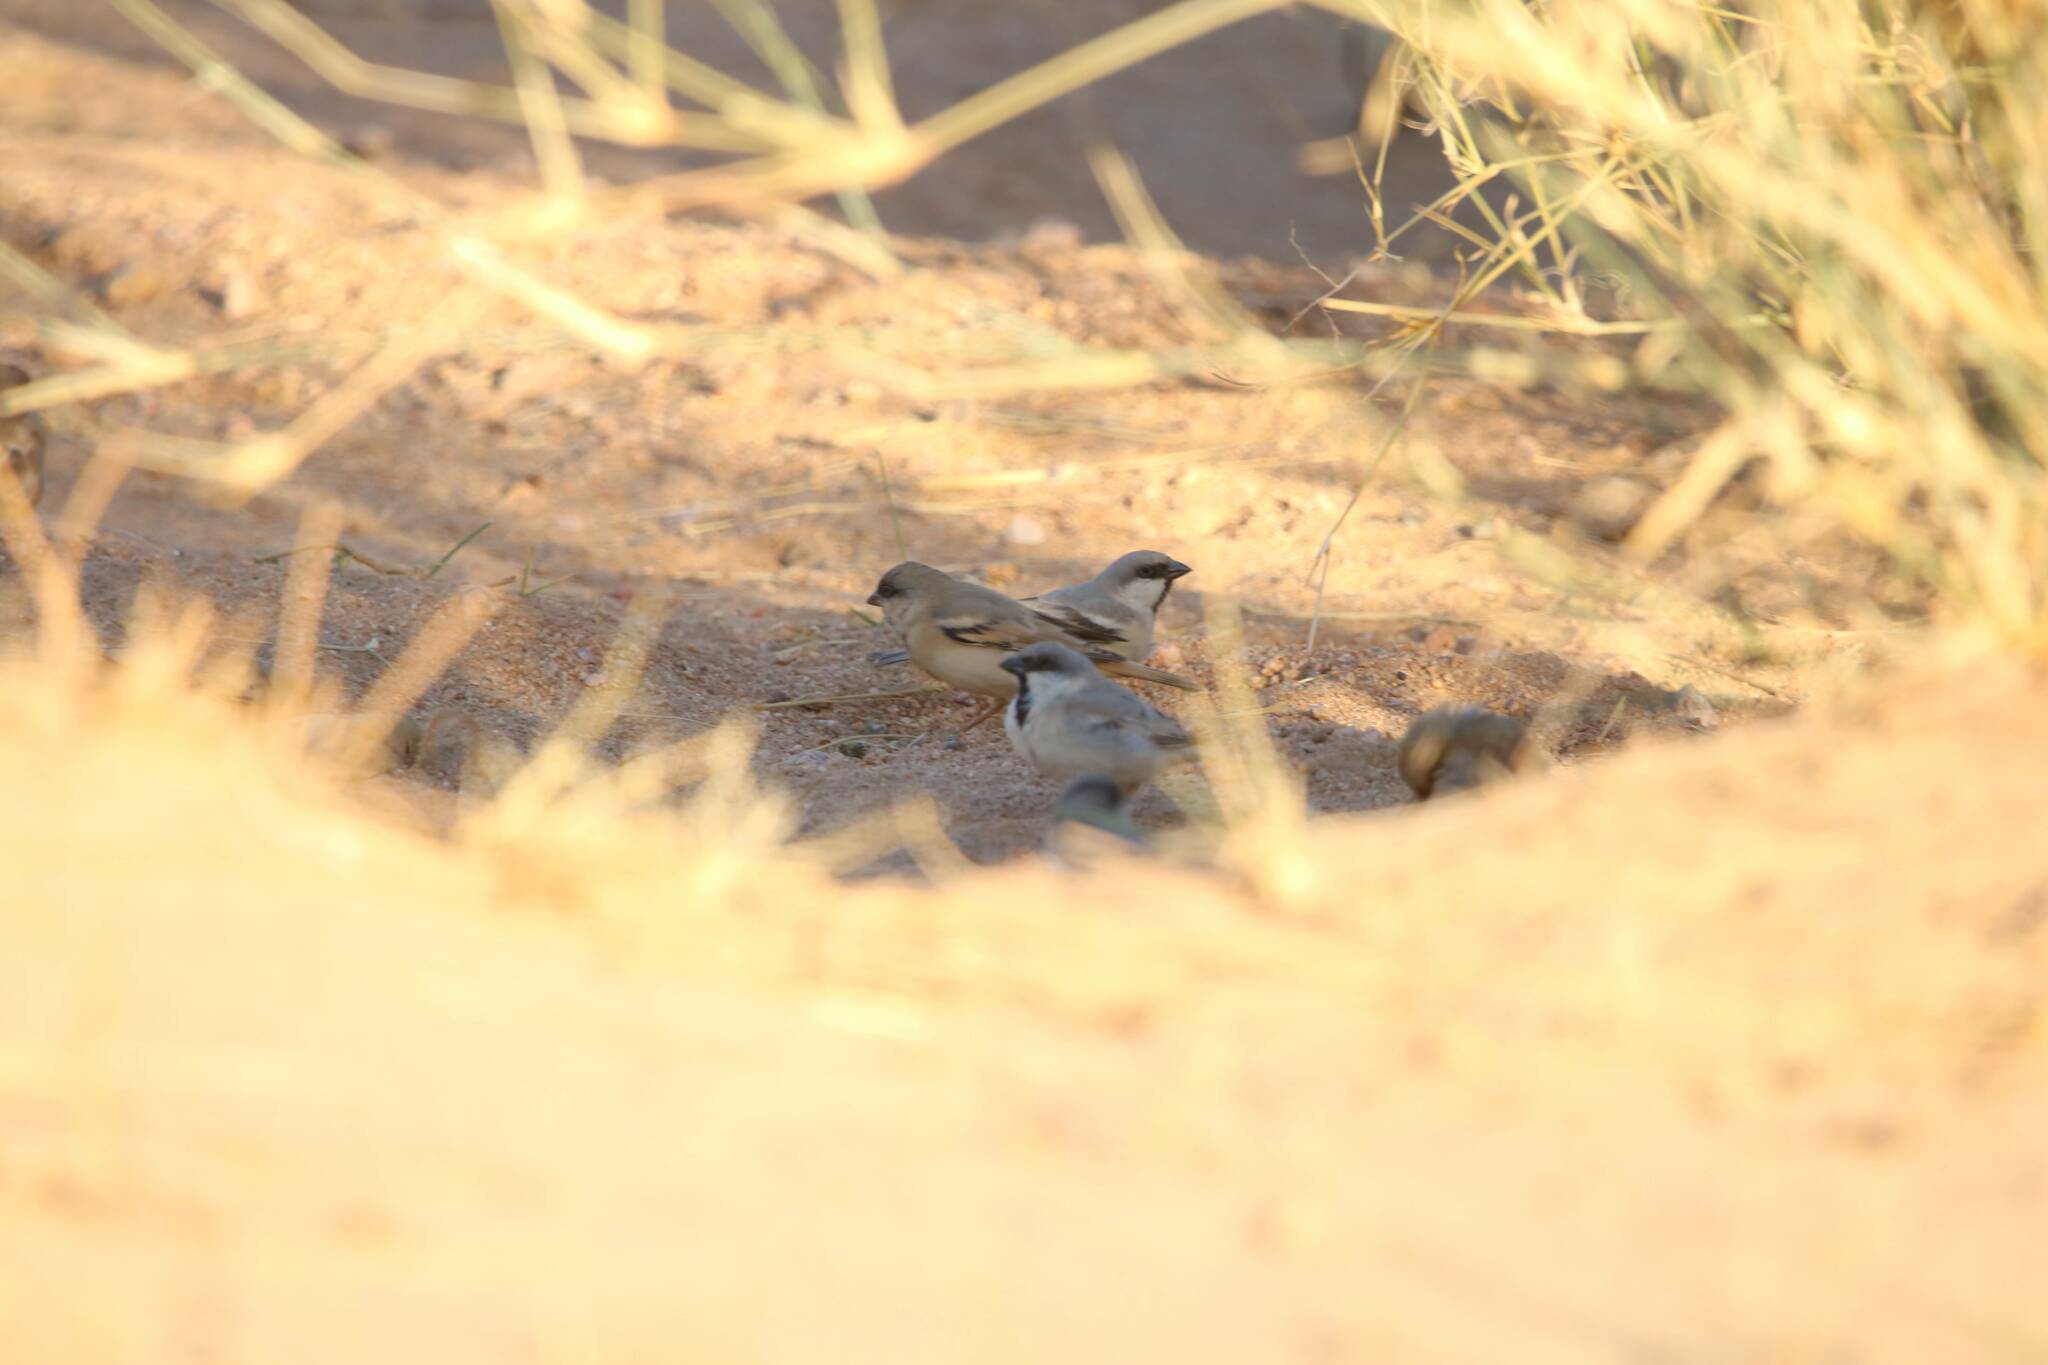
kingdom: Animalia
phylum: Chordata
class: Aves
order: Passeriformes
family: Passeridae
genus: Passer
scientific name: Passer simplex
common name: Desert sparrow
